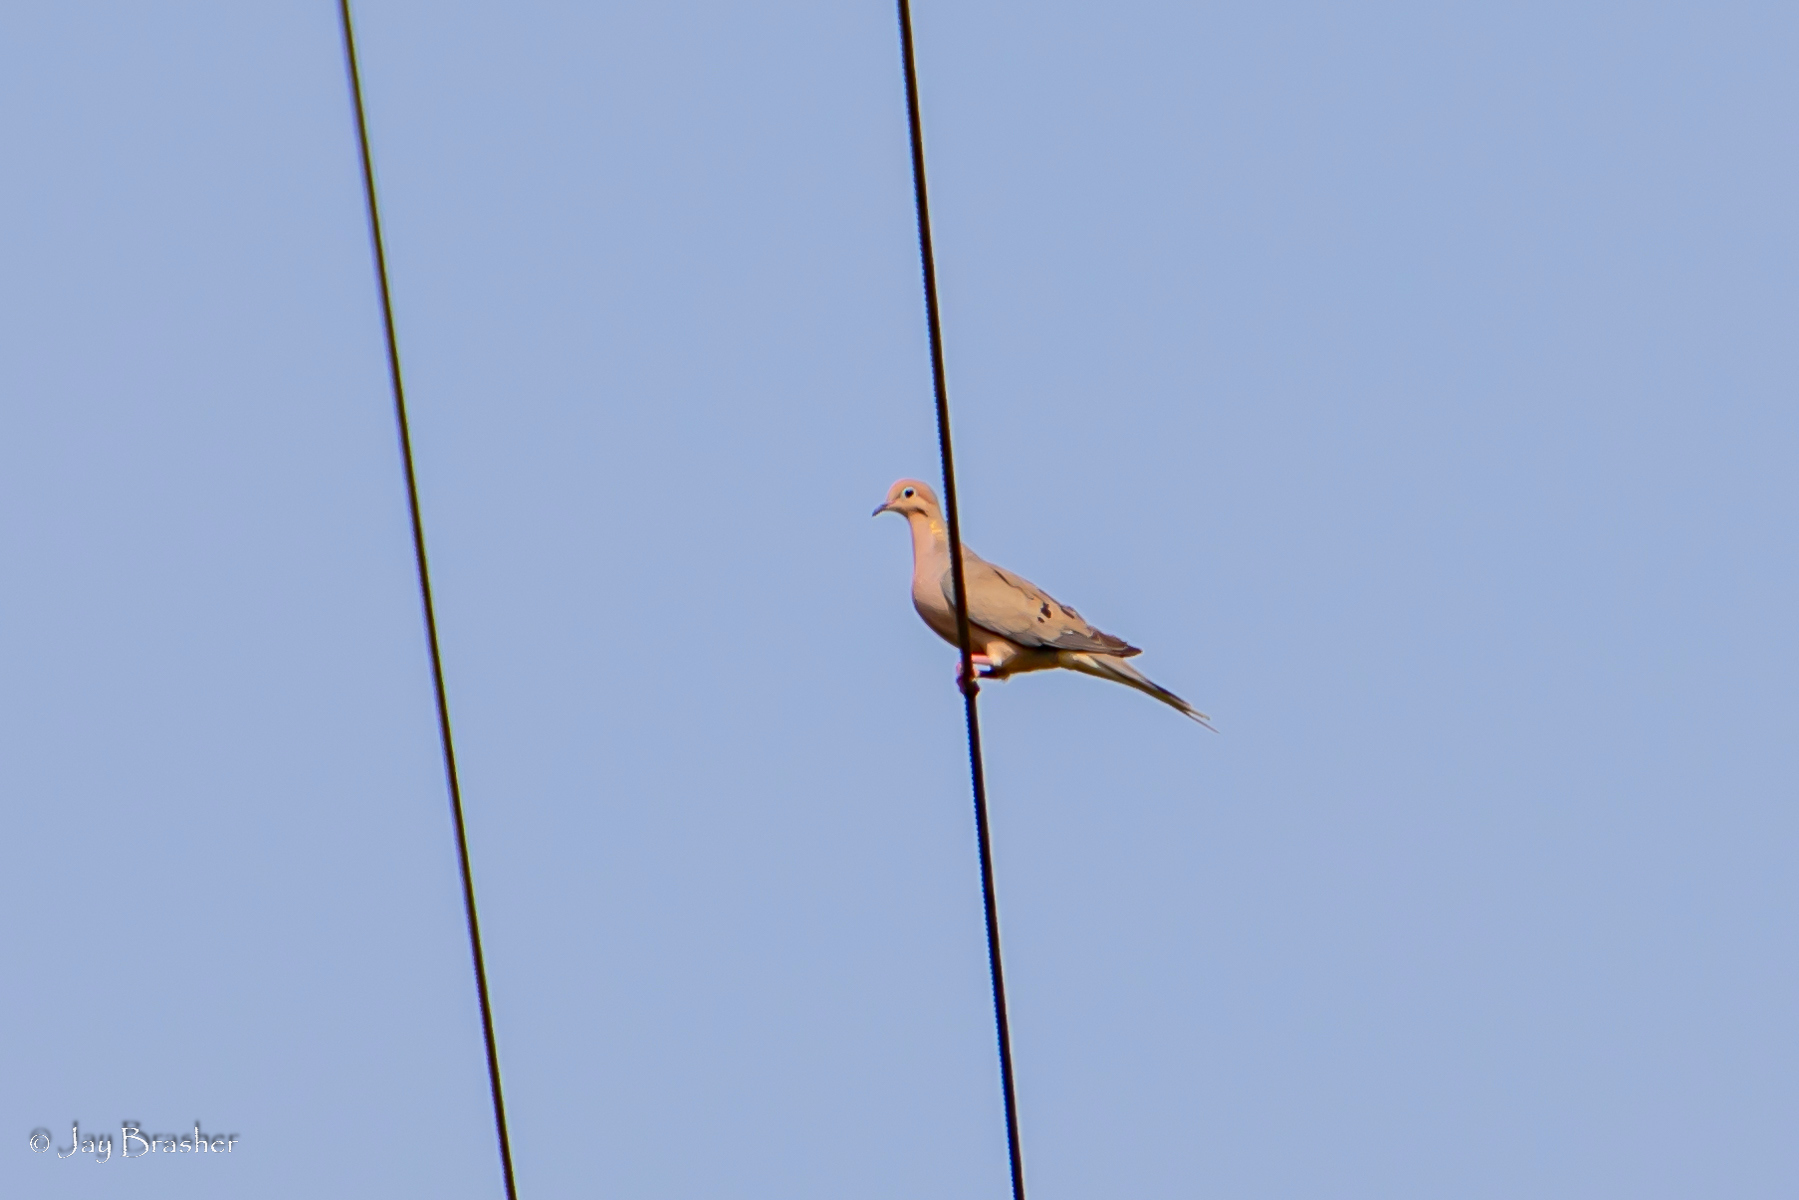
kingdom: Animalia
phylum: Chordata
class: Aves
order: Columbiformes
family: Columbidae
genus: Zenaida
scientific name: Zenaida macroura
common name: Mourning dove
